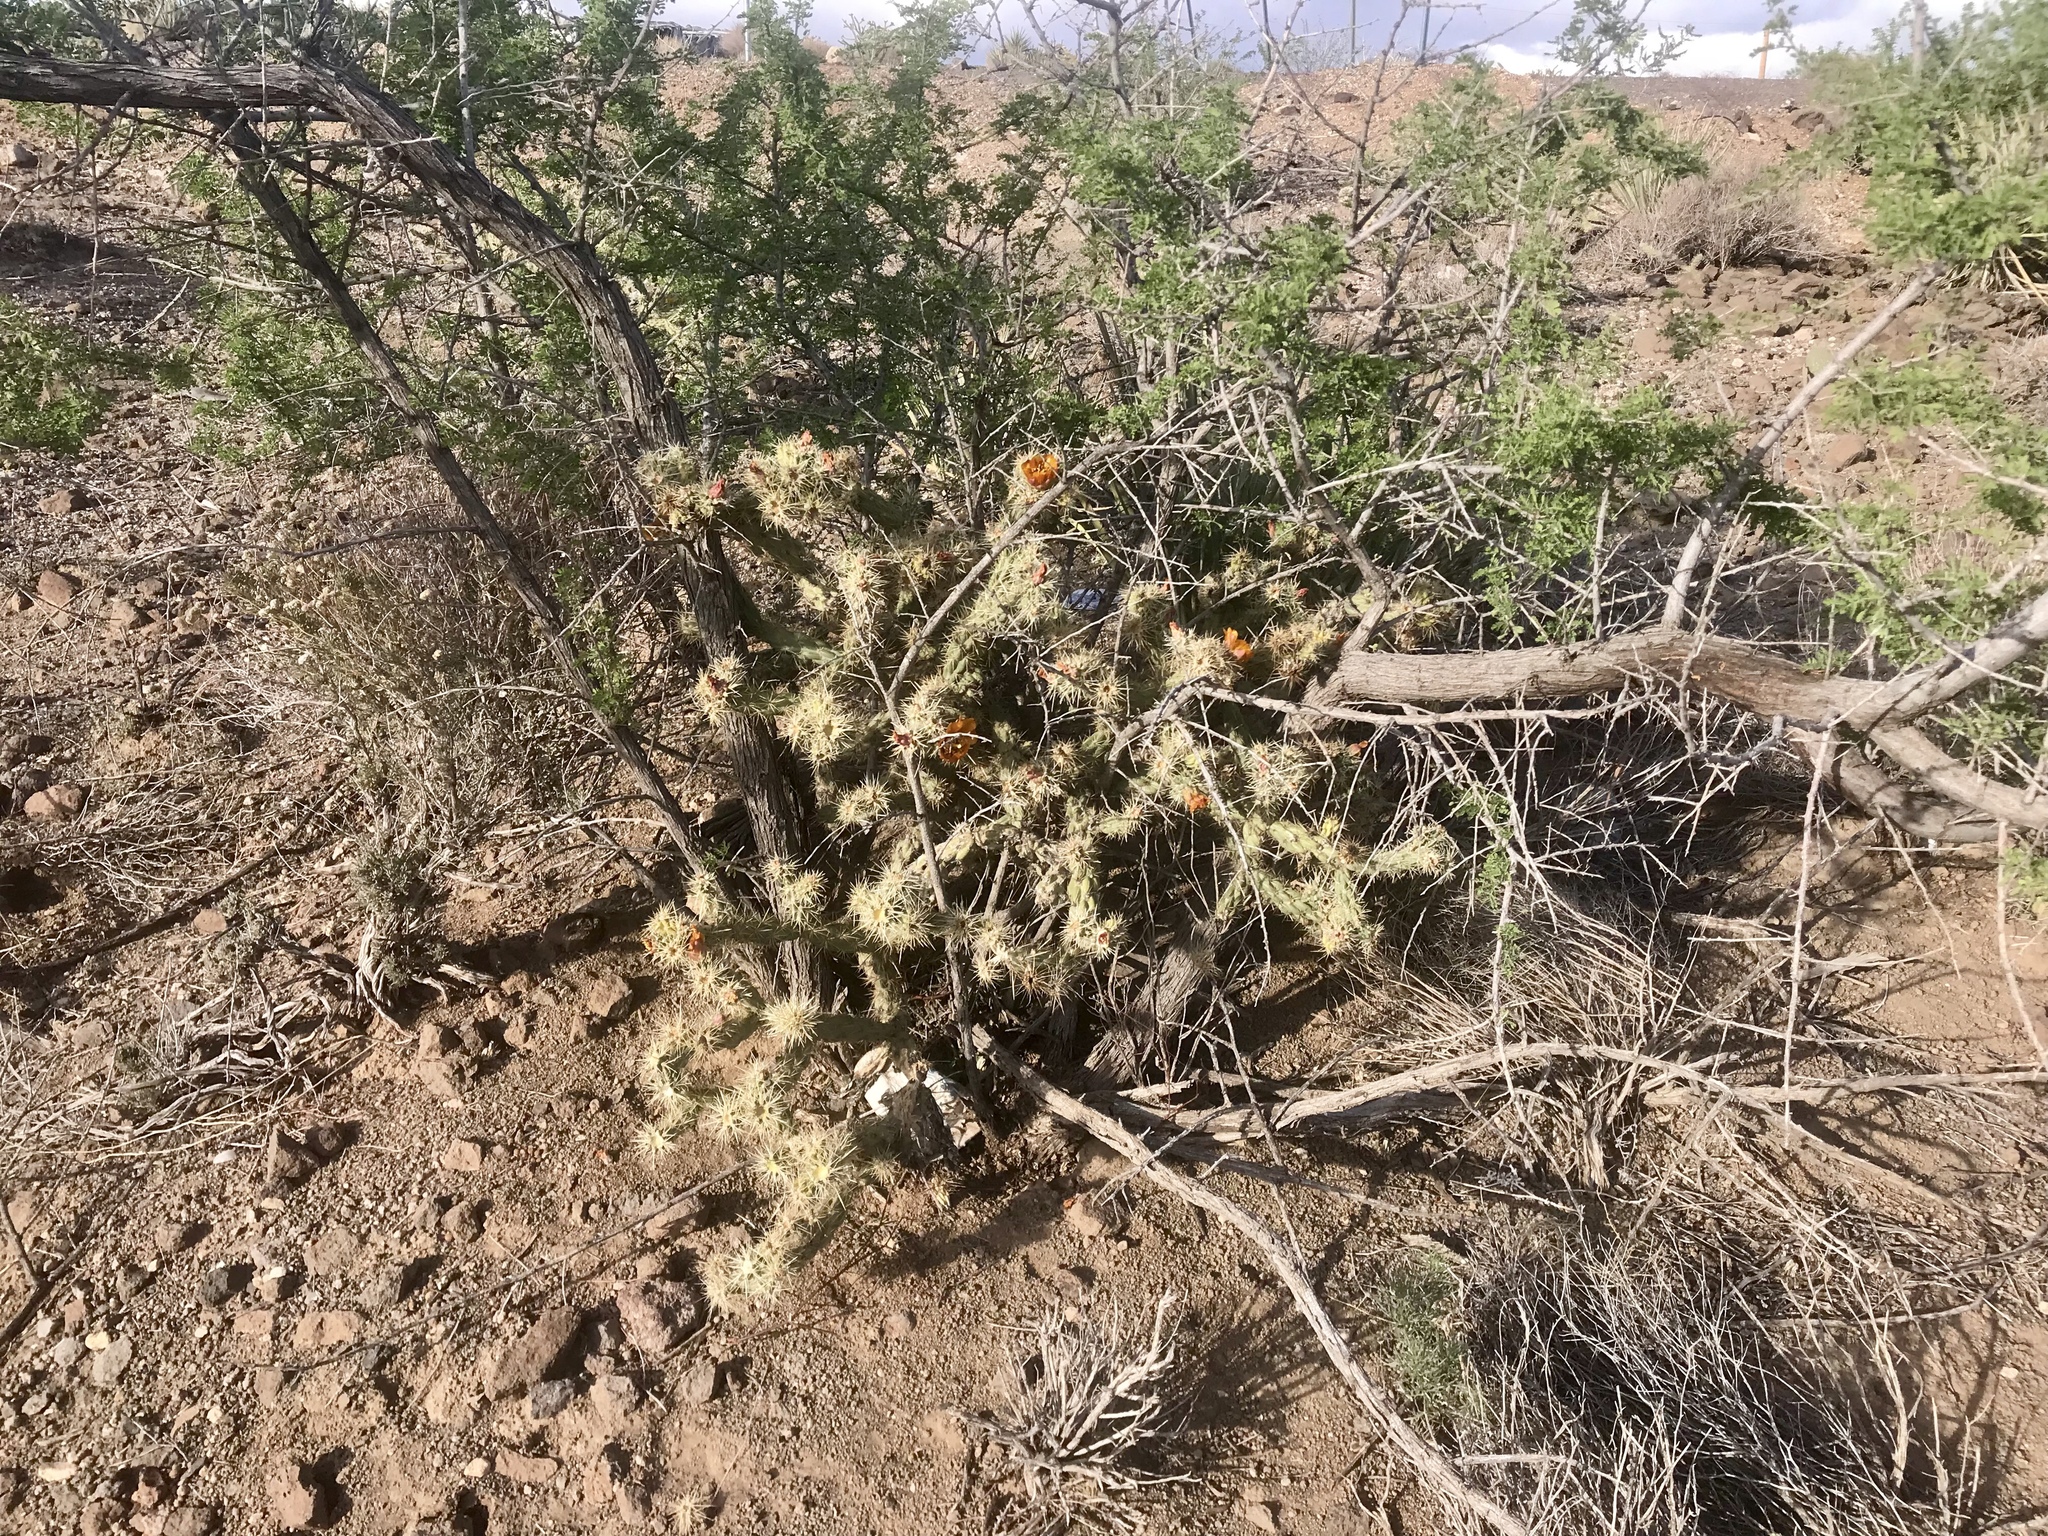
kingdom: Plantae
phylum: Tracheophyta
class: Magnoliopsida
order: Caryophyllales
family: Cactaceae
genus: Cylindropuntia
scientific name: Cylindropuntia acanthocarpa
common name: Buckhorn cholla
